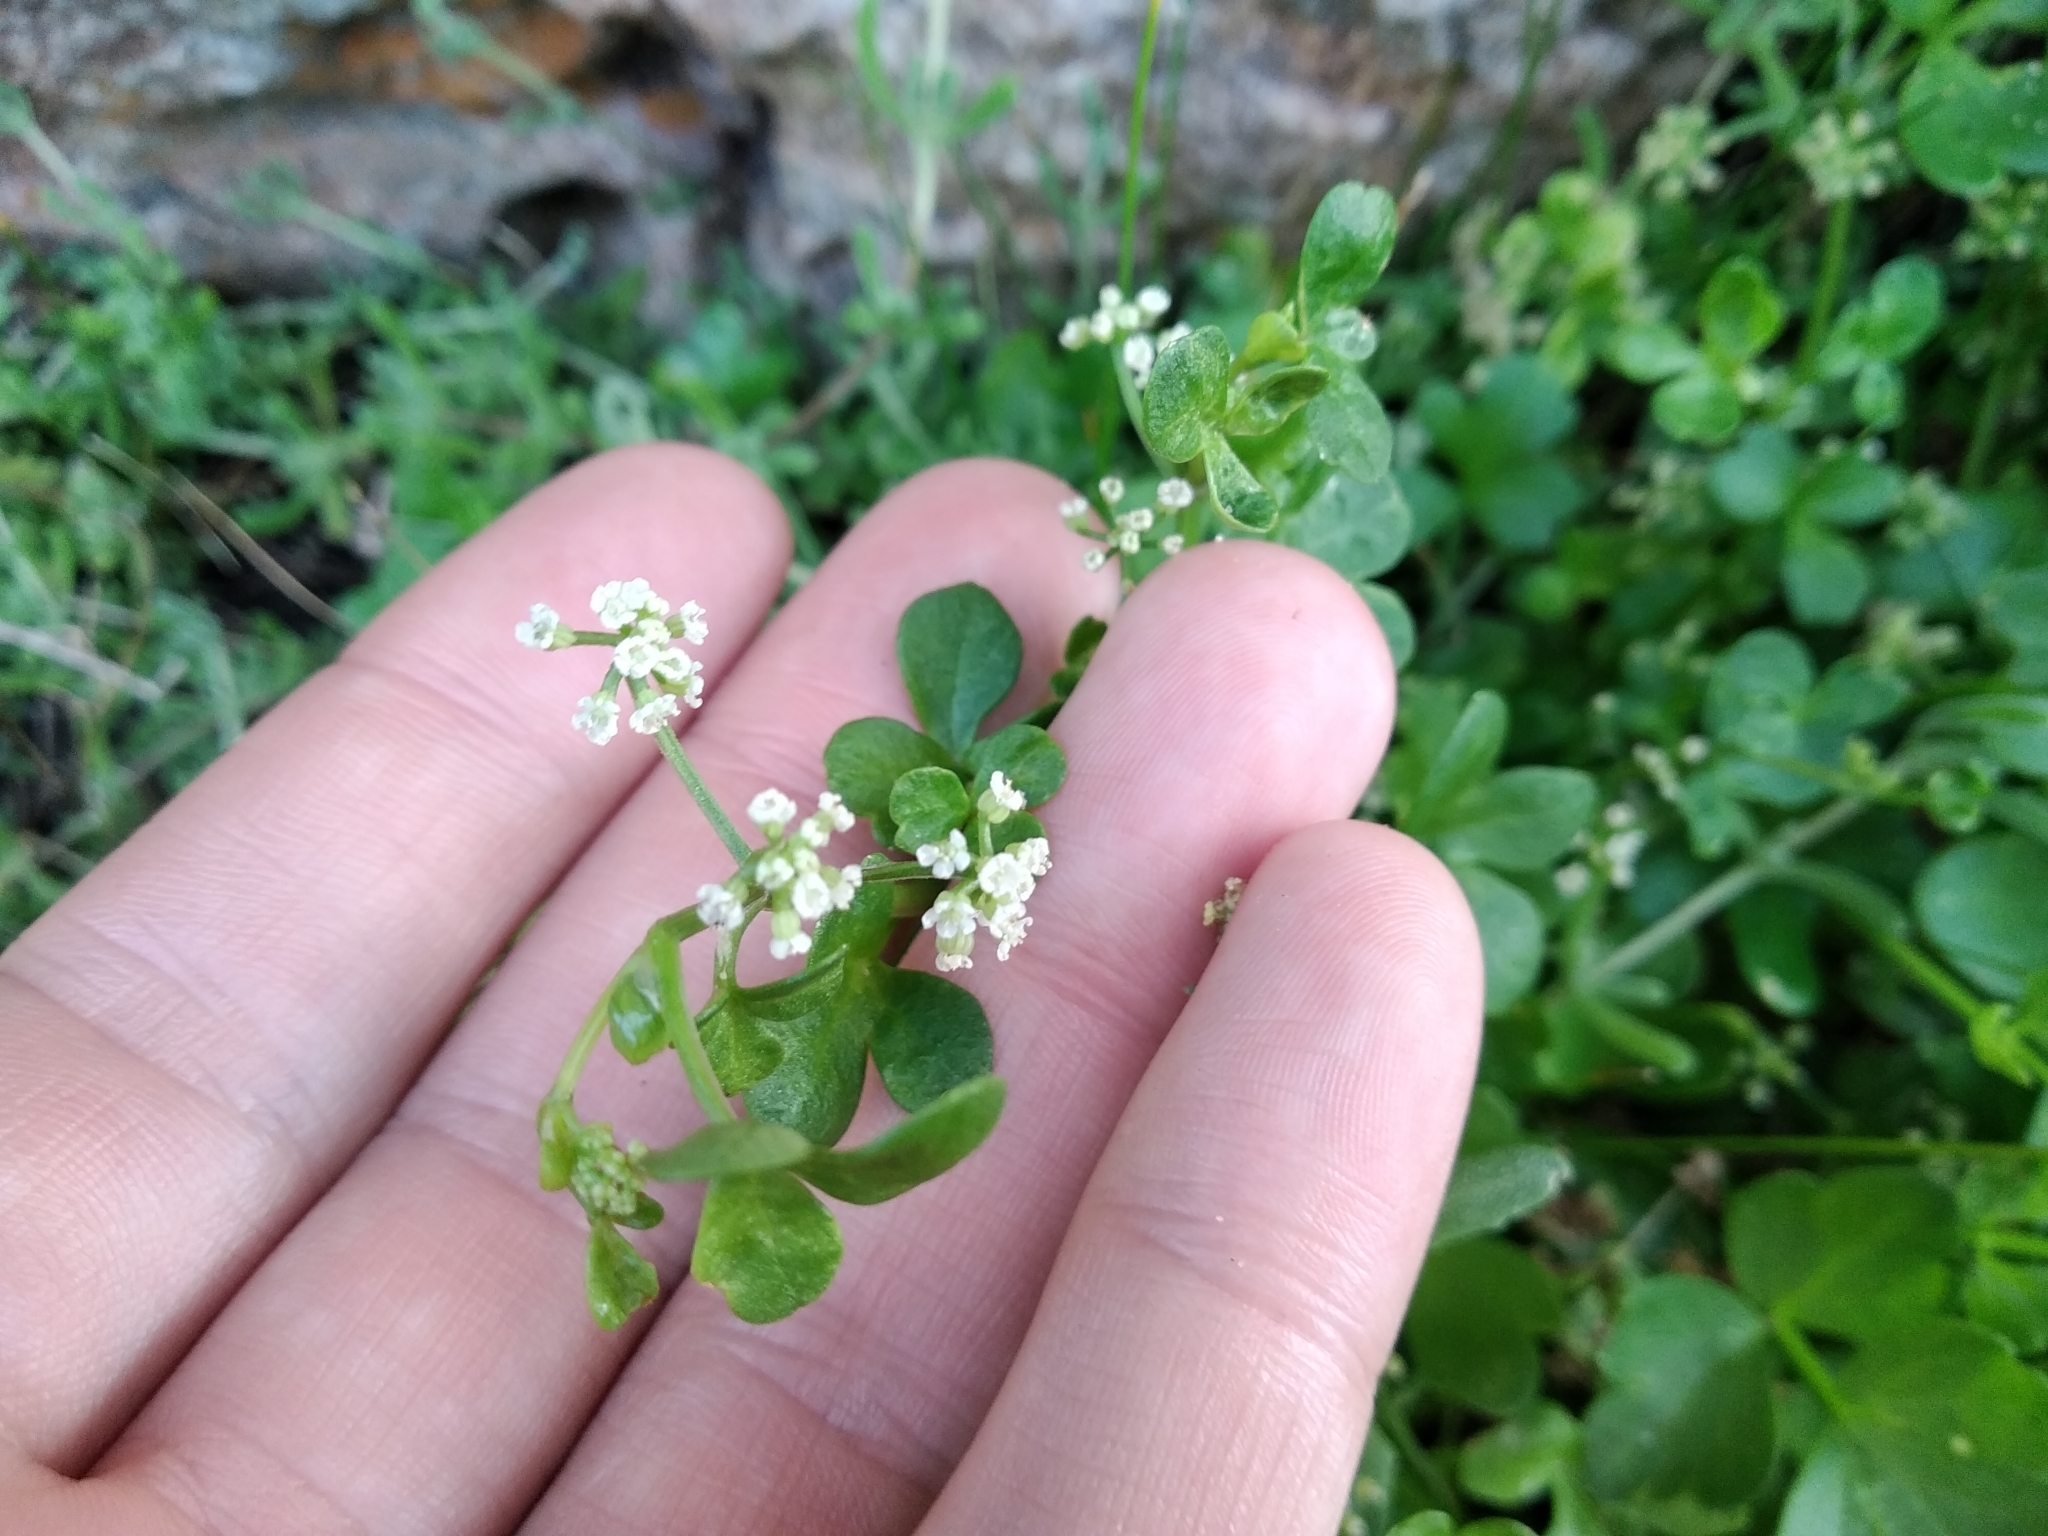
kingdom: Plantae
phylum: Tracheophyta
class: Magnoliopsida
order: Apiales
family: Apiaceae
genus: Apium
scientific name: Apium decumbens
